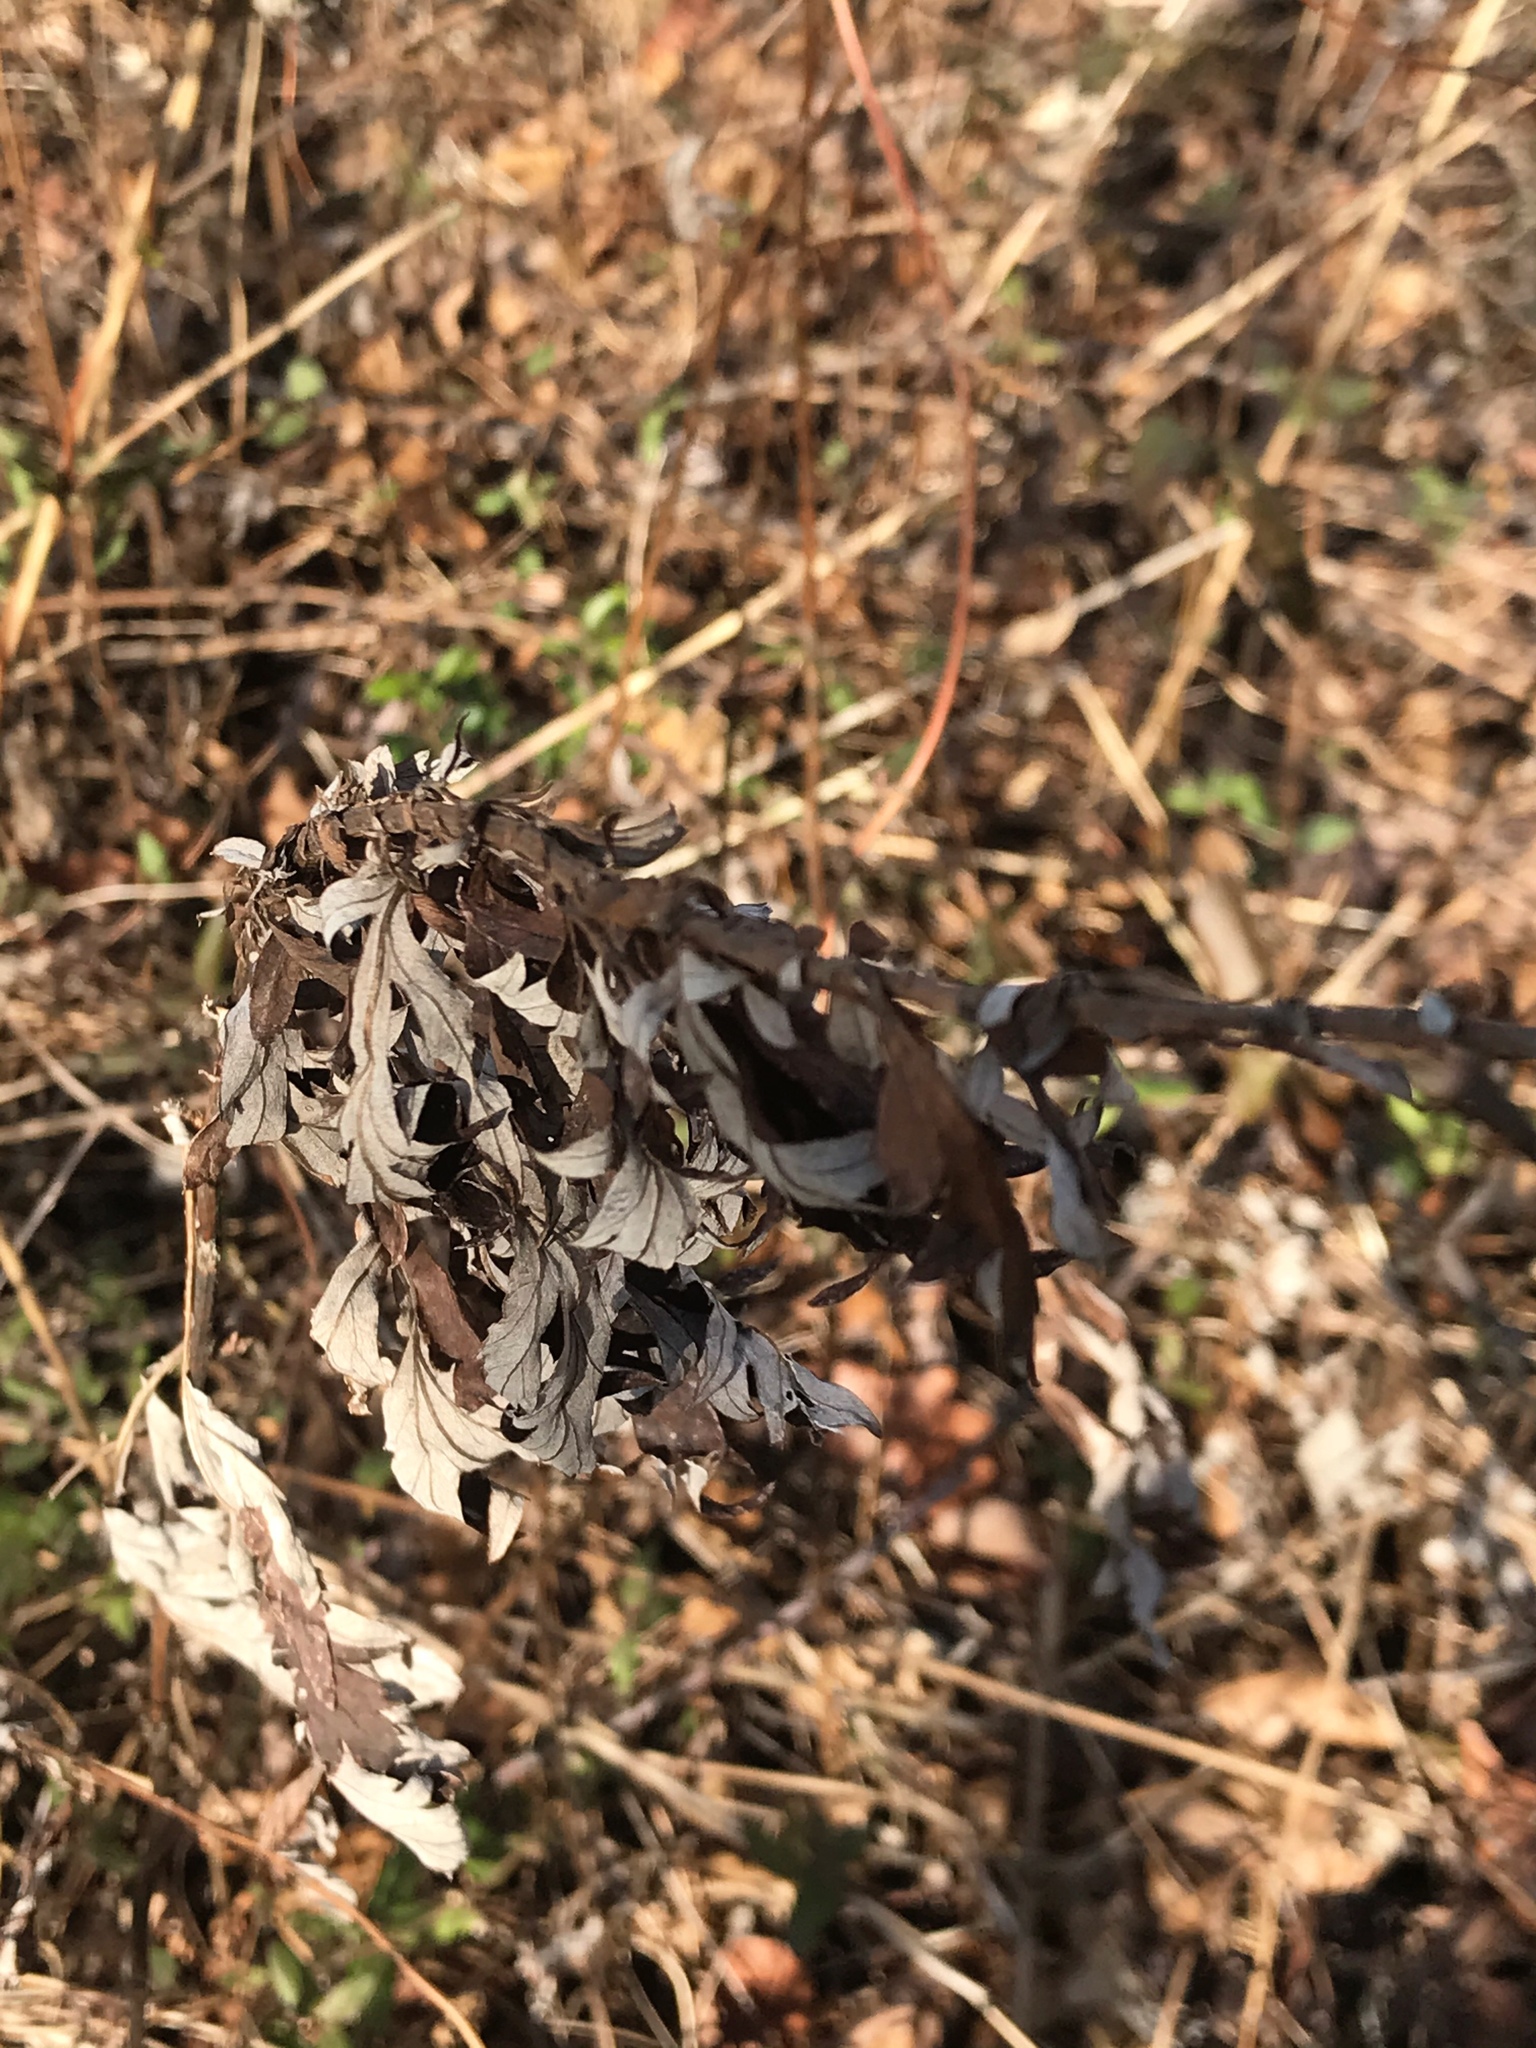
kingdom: Plantae
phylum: Tracheophyta
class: Magnoliopsida
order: Asterales
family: Asteraceae
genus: Artemisia
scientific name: Artemisia vulgaris
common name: Mugwort
